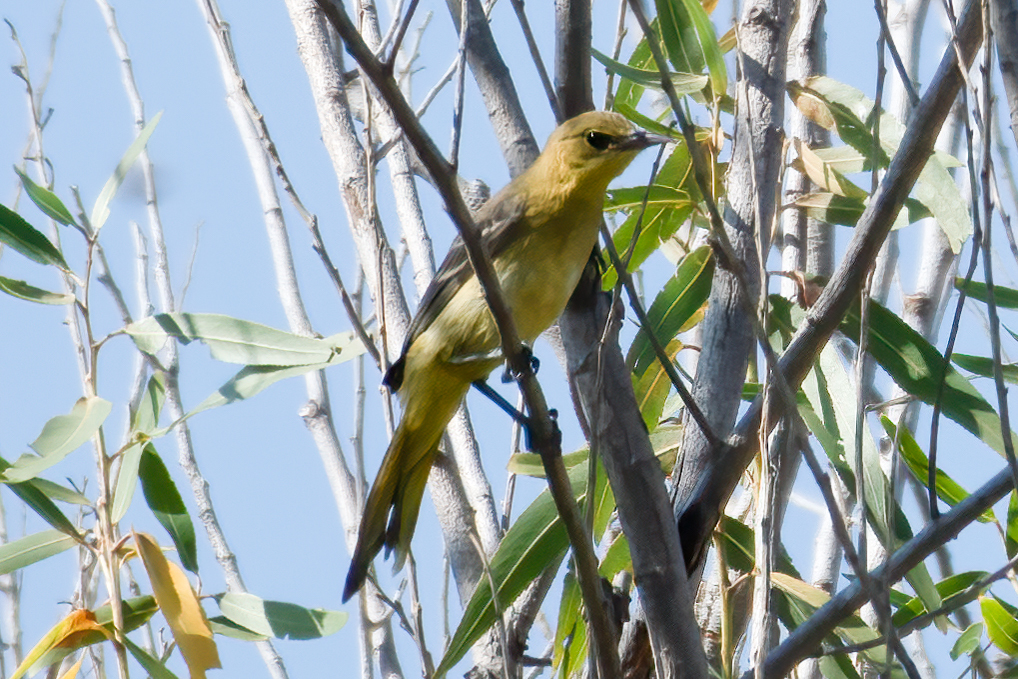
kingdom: Animalia
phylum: Chordata
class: Aves
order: Passeriformes
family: Icteridae
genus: Icterus
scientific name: Icterus cucullatus
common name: Hooded oriole
